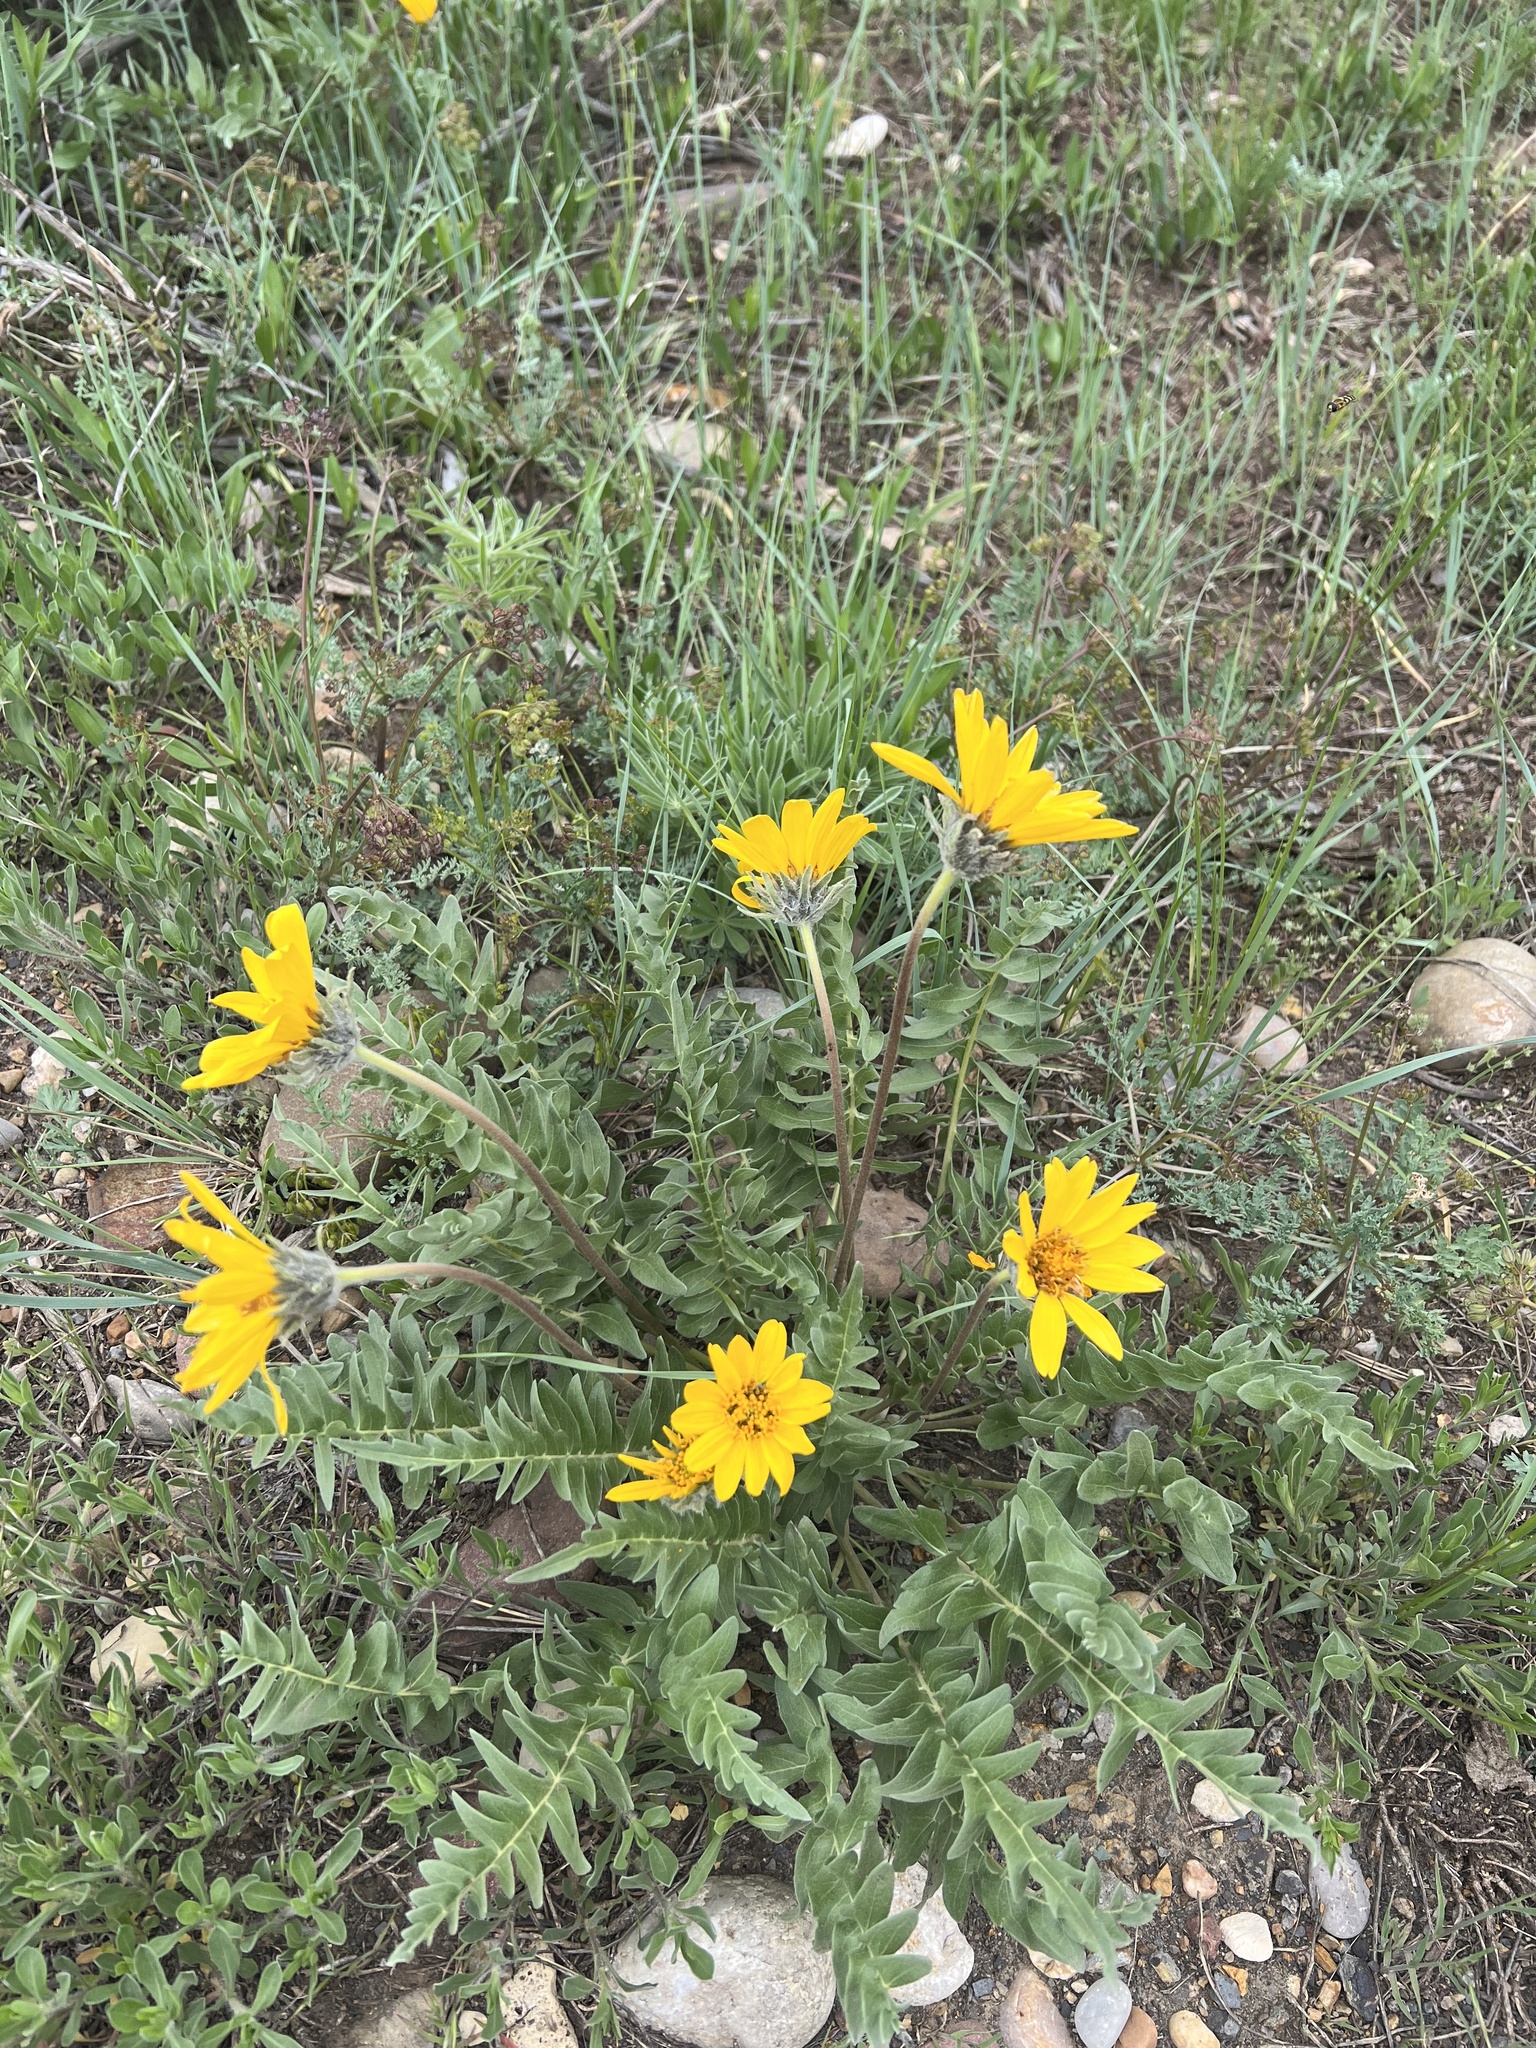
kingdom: Plantae
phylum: Tracheophyta
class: Magnoliopsida
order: Asterales
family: Asteraceae
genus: Balsamorhiza
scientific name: Balsamorhiza hookeri
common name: Hooker's balsamroot
